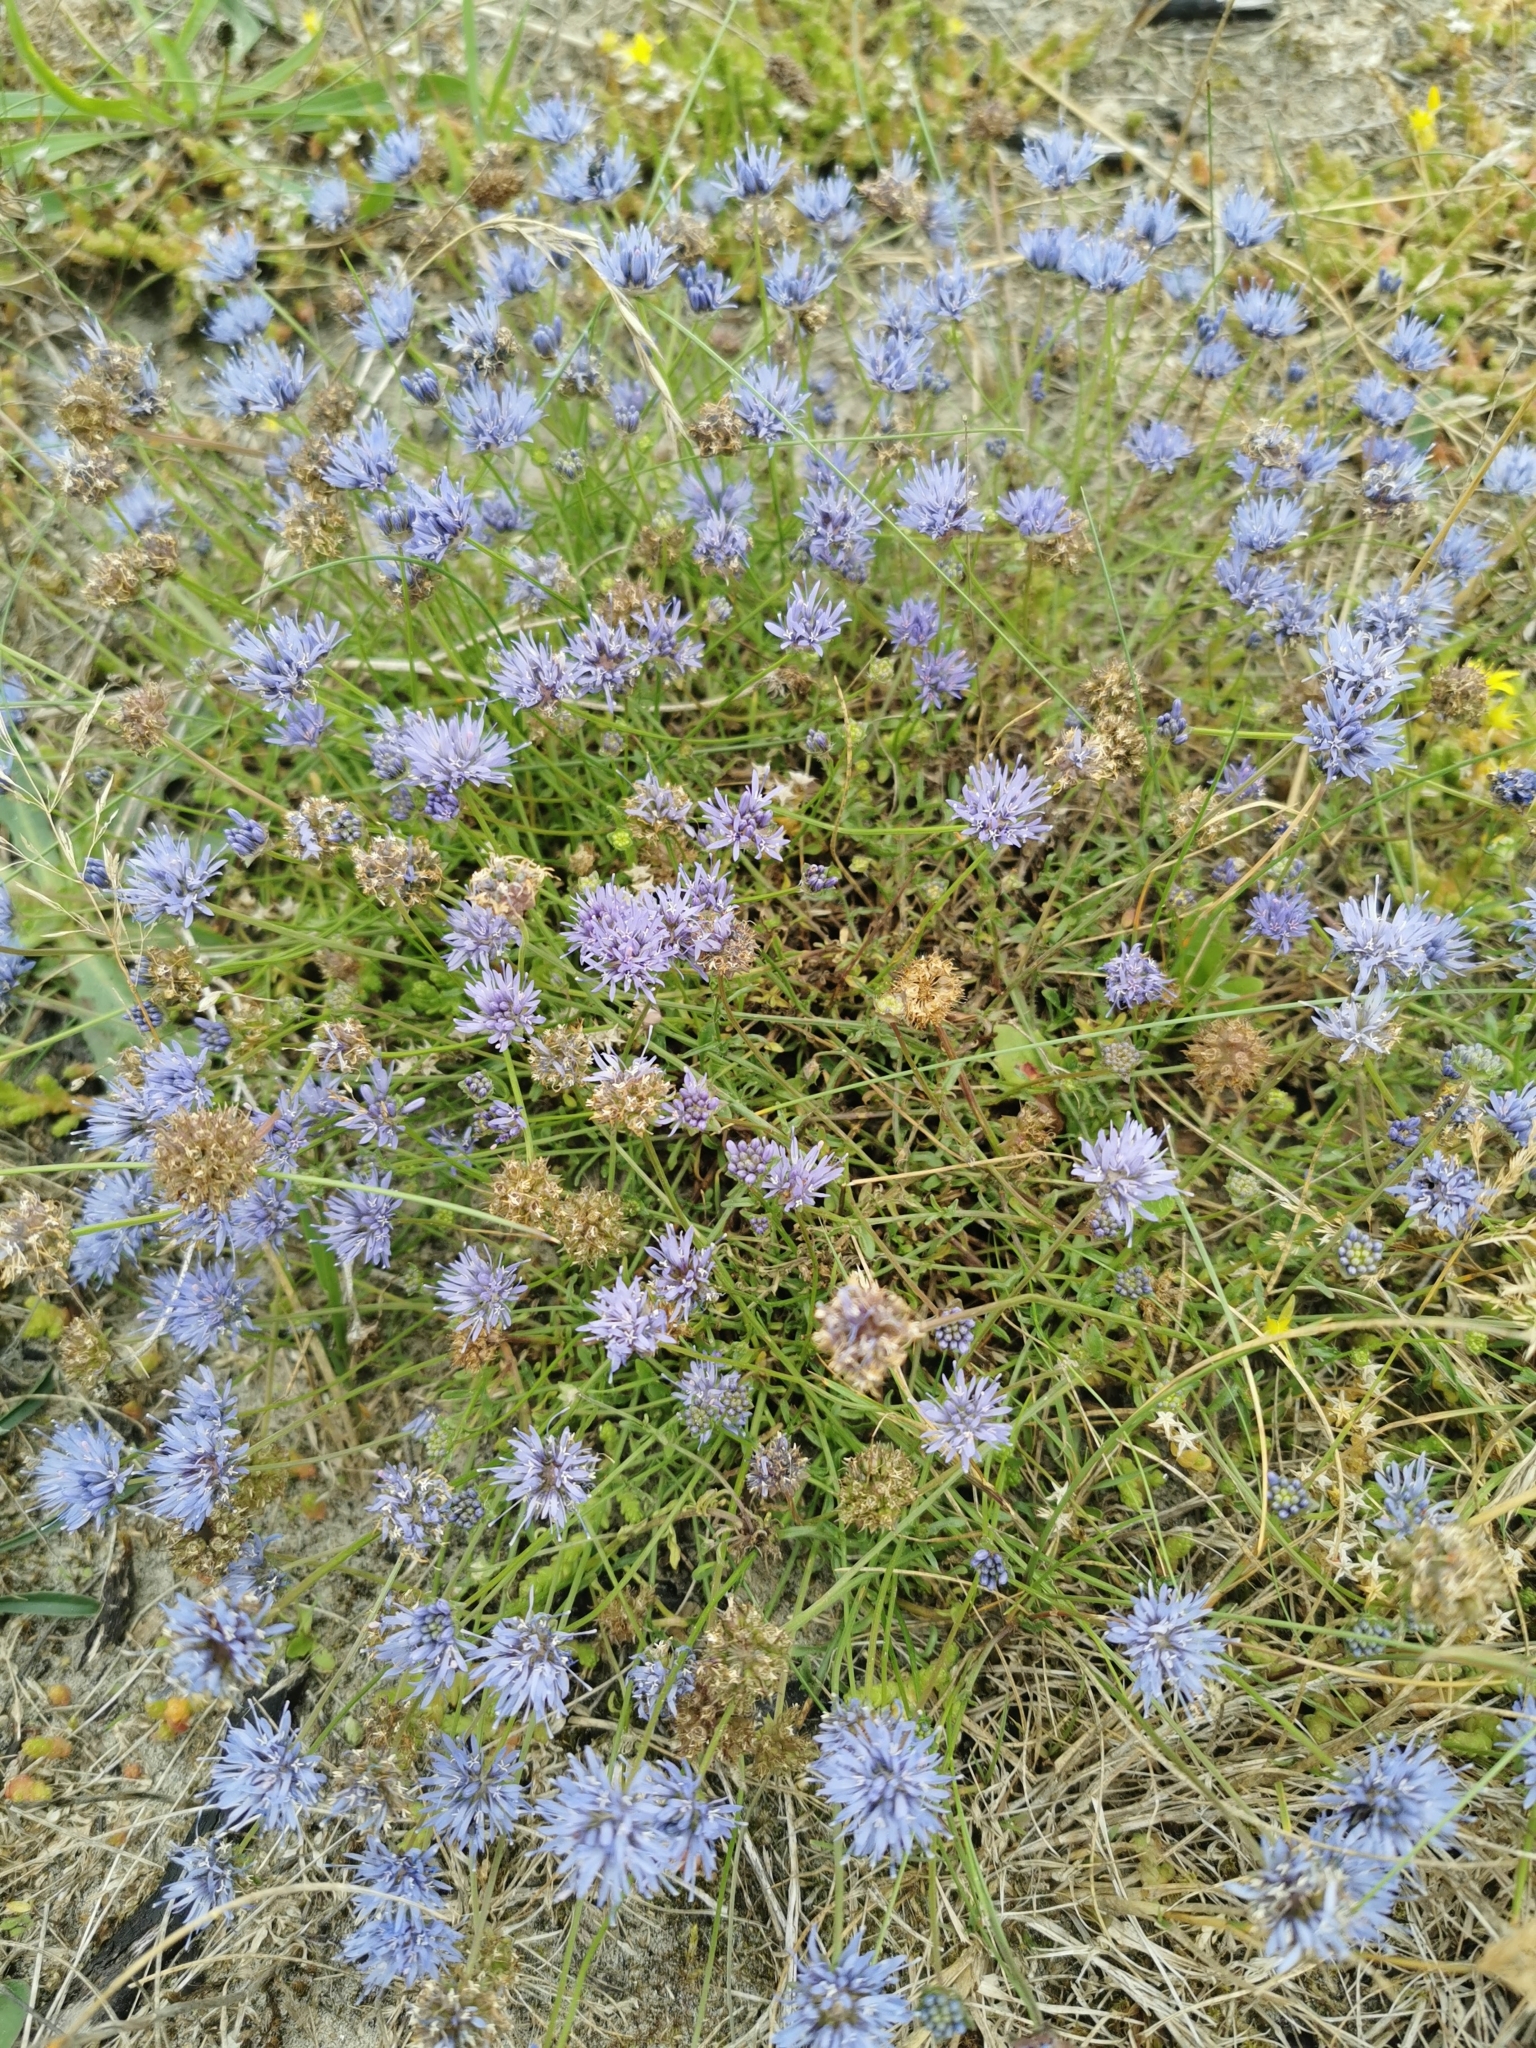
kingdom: Plantae
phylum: Tracheophyta
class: Magnoliopsida
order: Asterales
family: Campanulaceae
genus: Jasione
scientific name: Jasione montana
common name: Sheep's-bit
